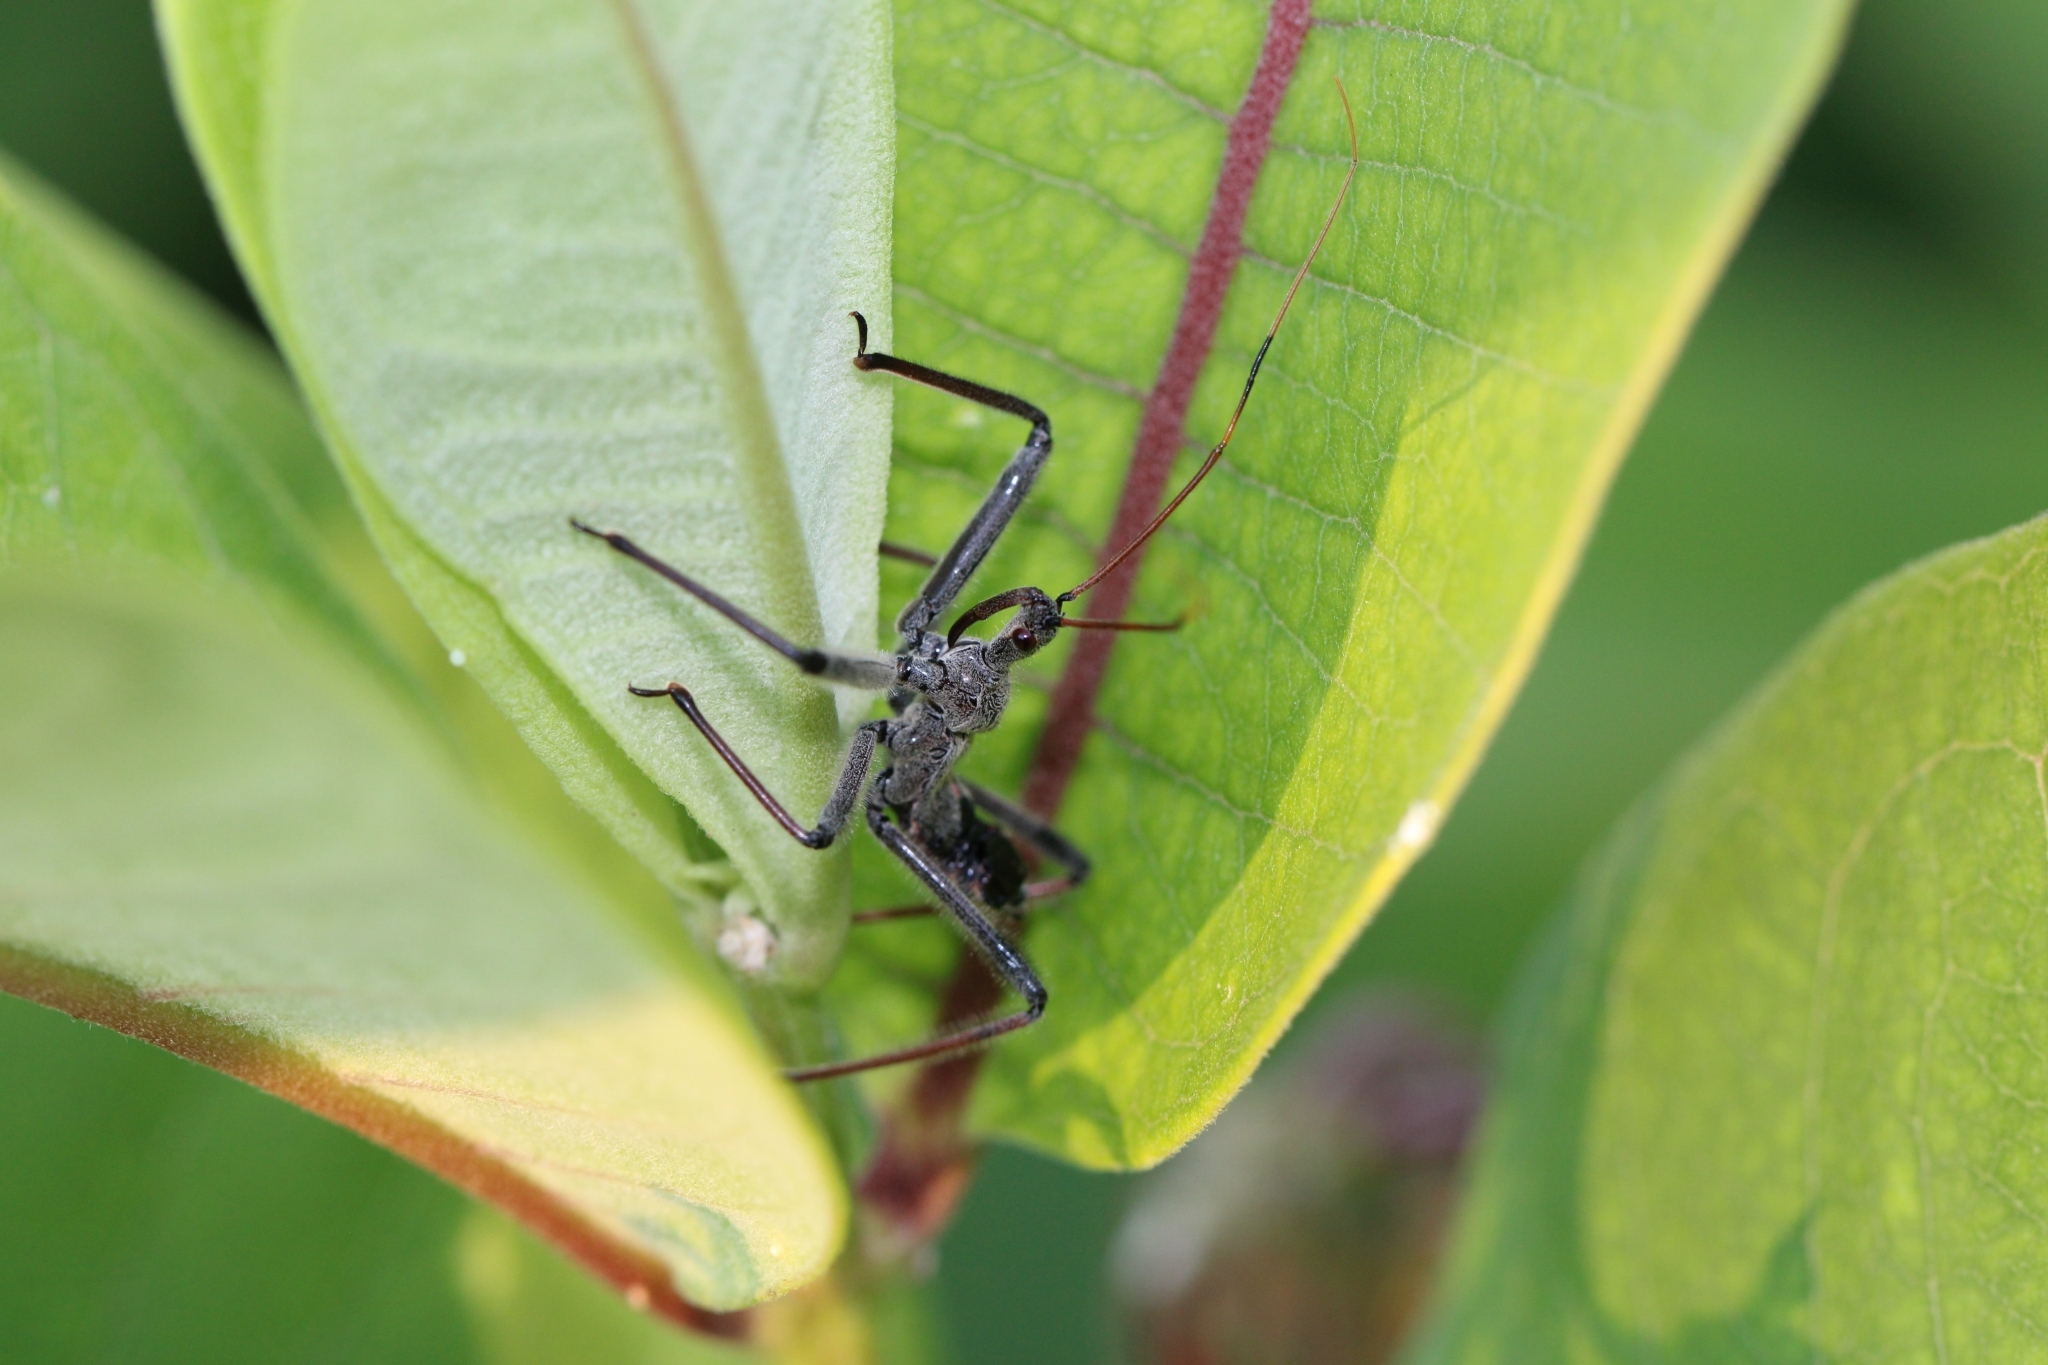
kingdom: Animalia
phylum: Arthropoda
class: Insecta
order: Hemiptera
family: Reduviidae
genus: Arilus
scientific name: Arilus cristatus
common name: North american wheel bug
